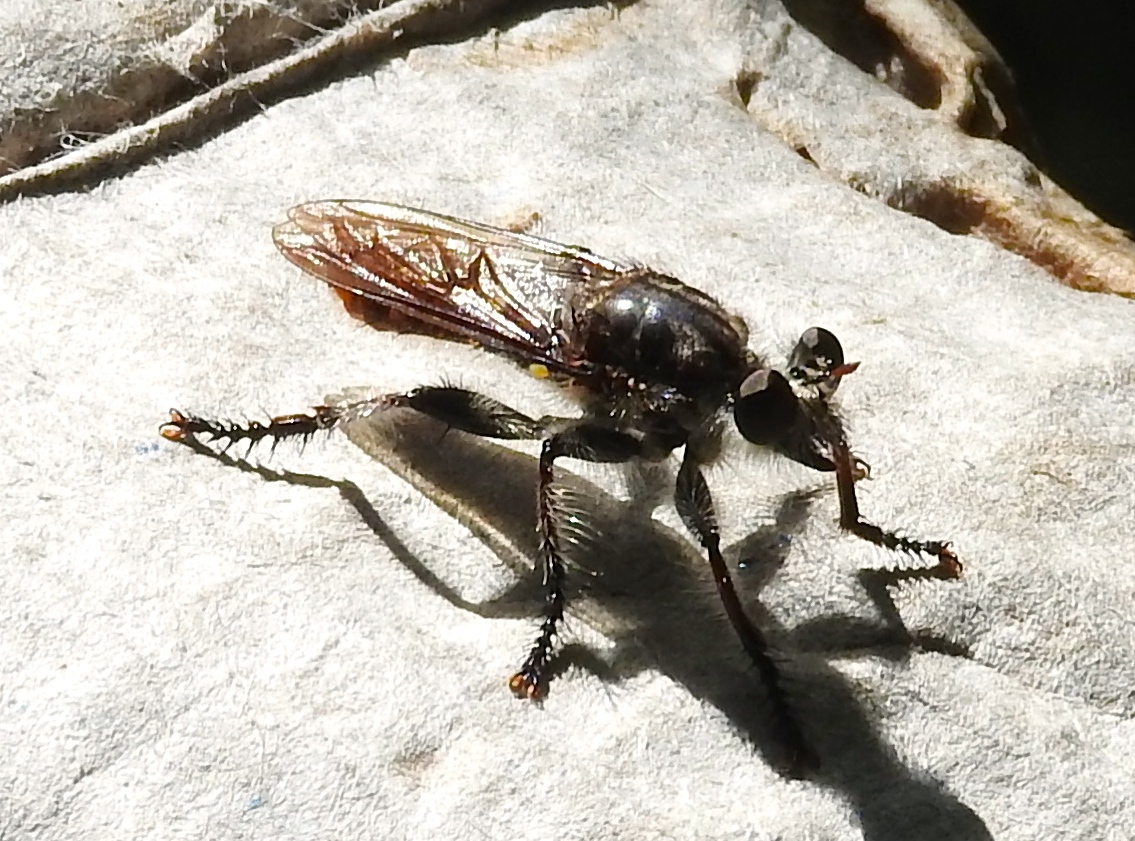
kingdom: Animalia
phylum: Arthropoda
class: Insecta
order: Diptera
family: Asilidae
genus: Andrenosoma
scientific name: Andrenosoma
